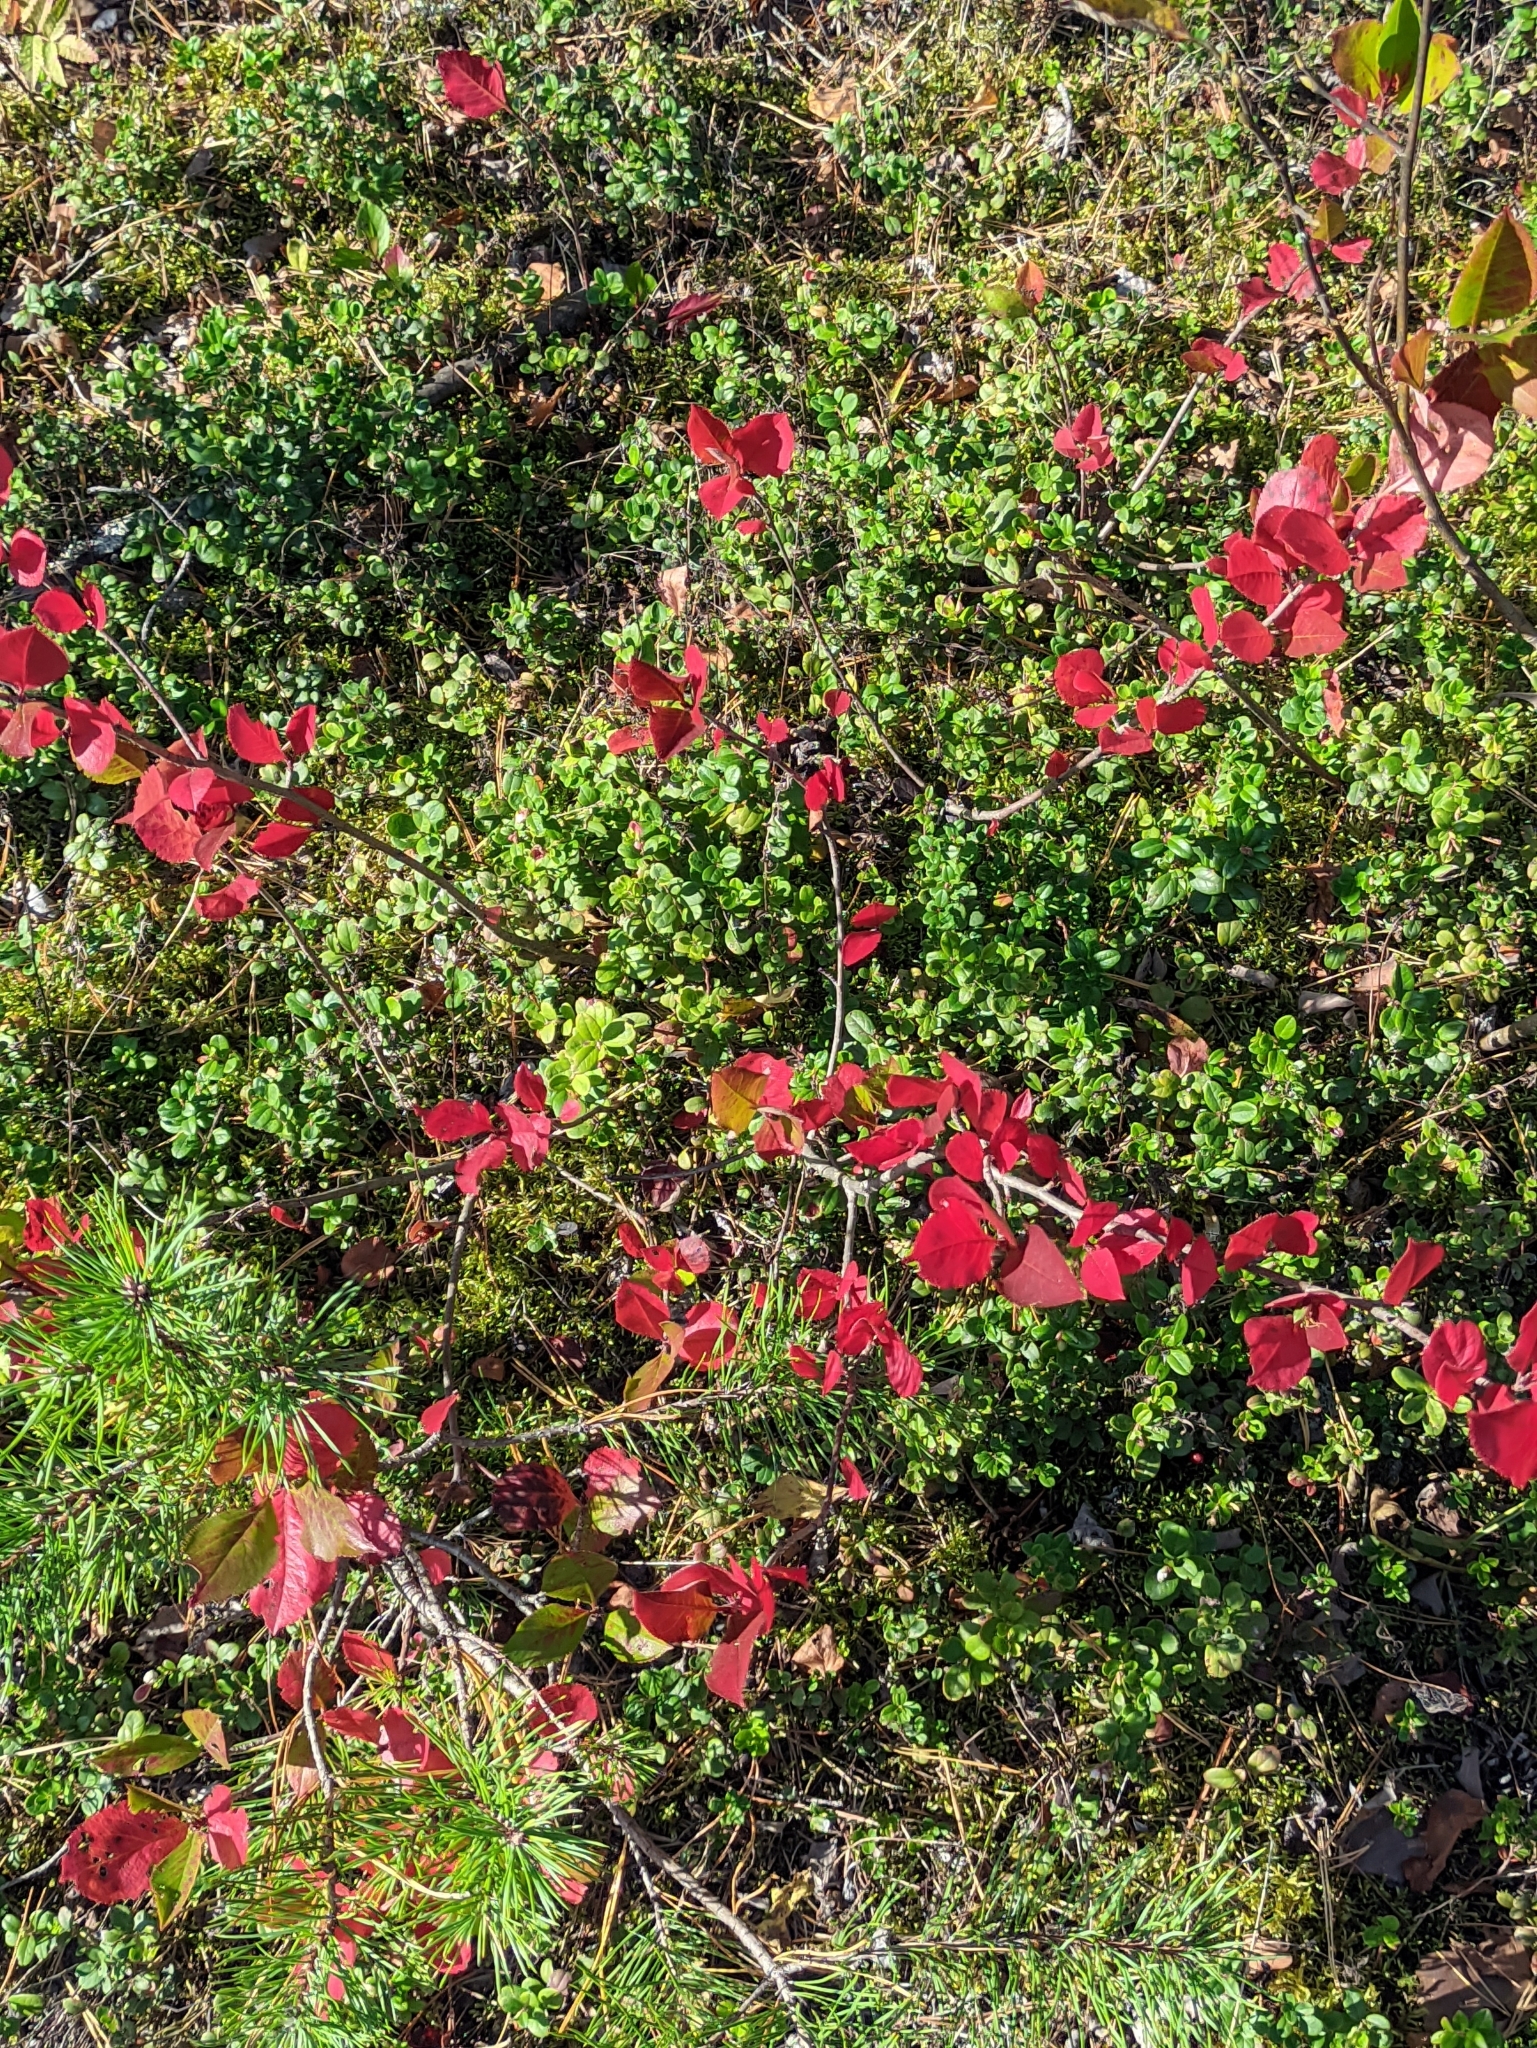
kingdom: Plantae
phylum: Tracheophyta
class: Magnoliopsida
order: Rosales
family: Rosaceae
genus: Sorbaronia
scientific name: Sorbaronia arsenii
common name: Arsène's mountain-ash
